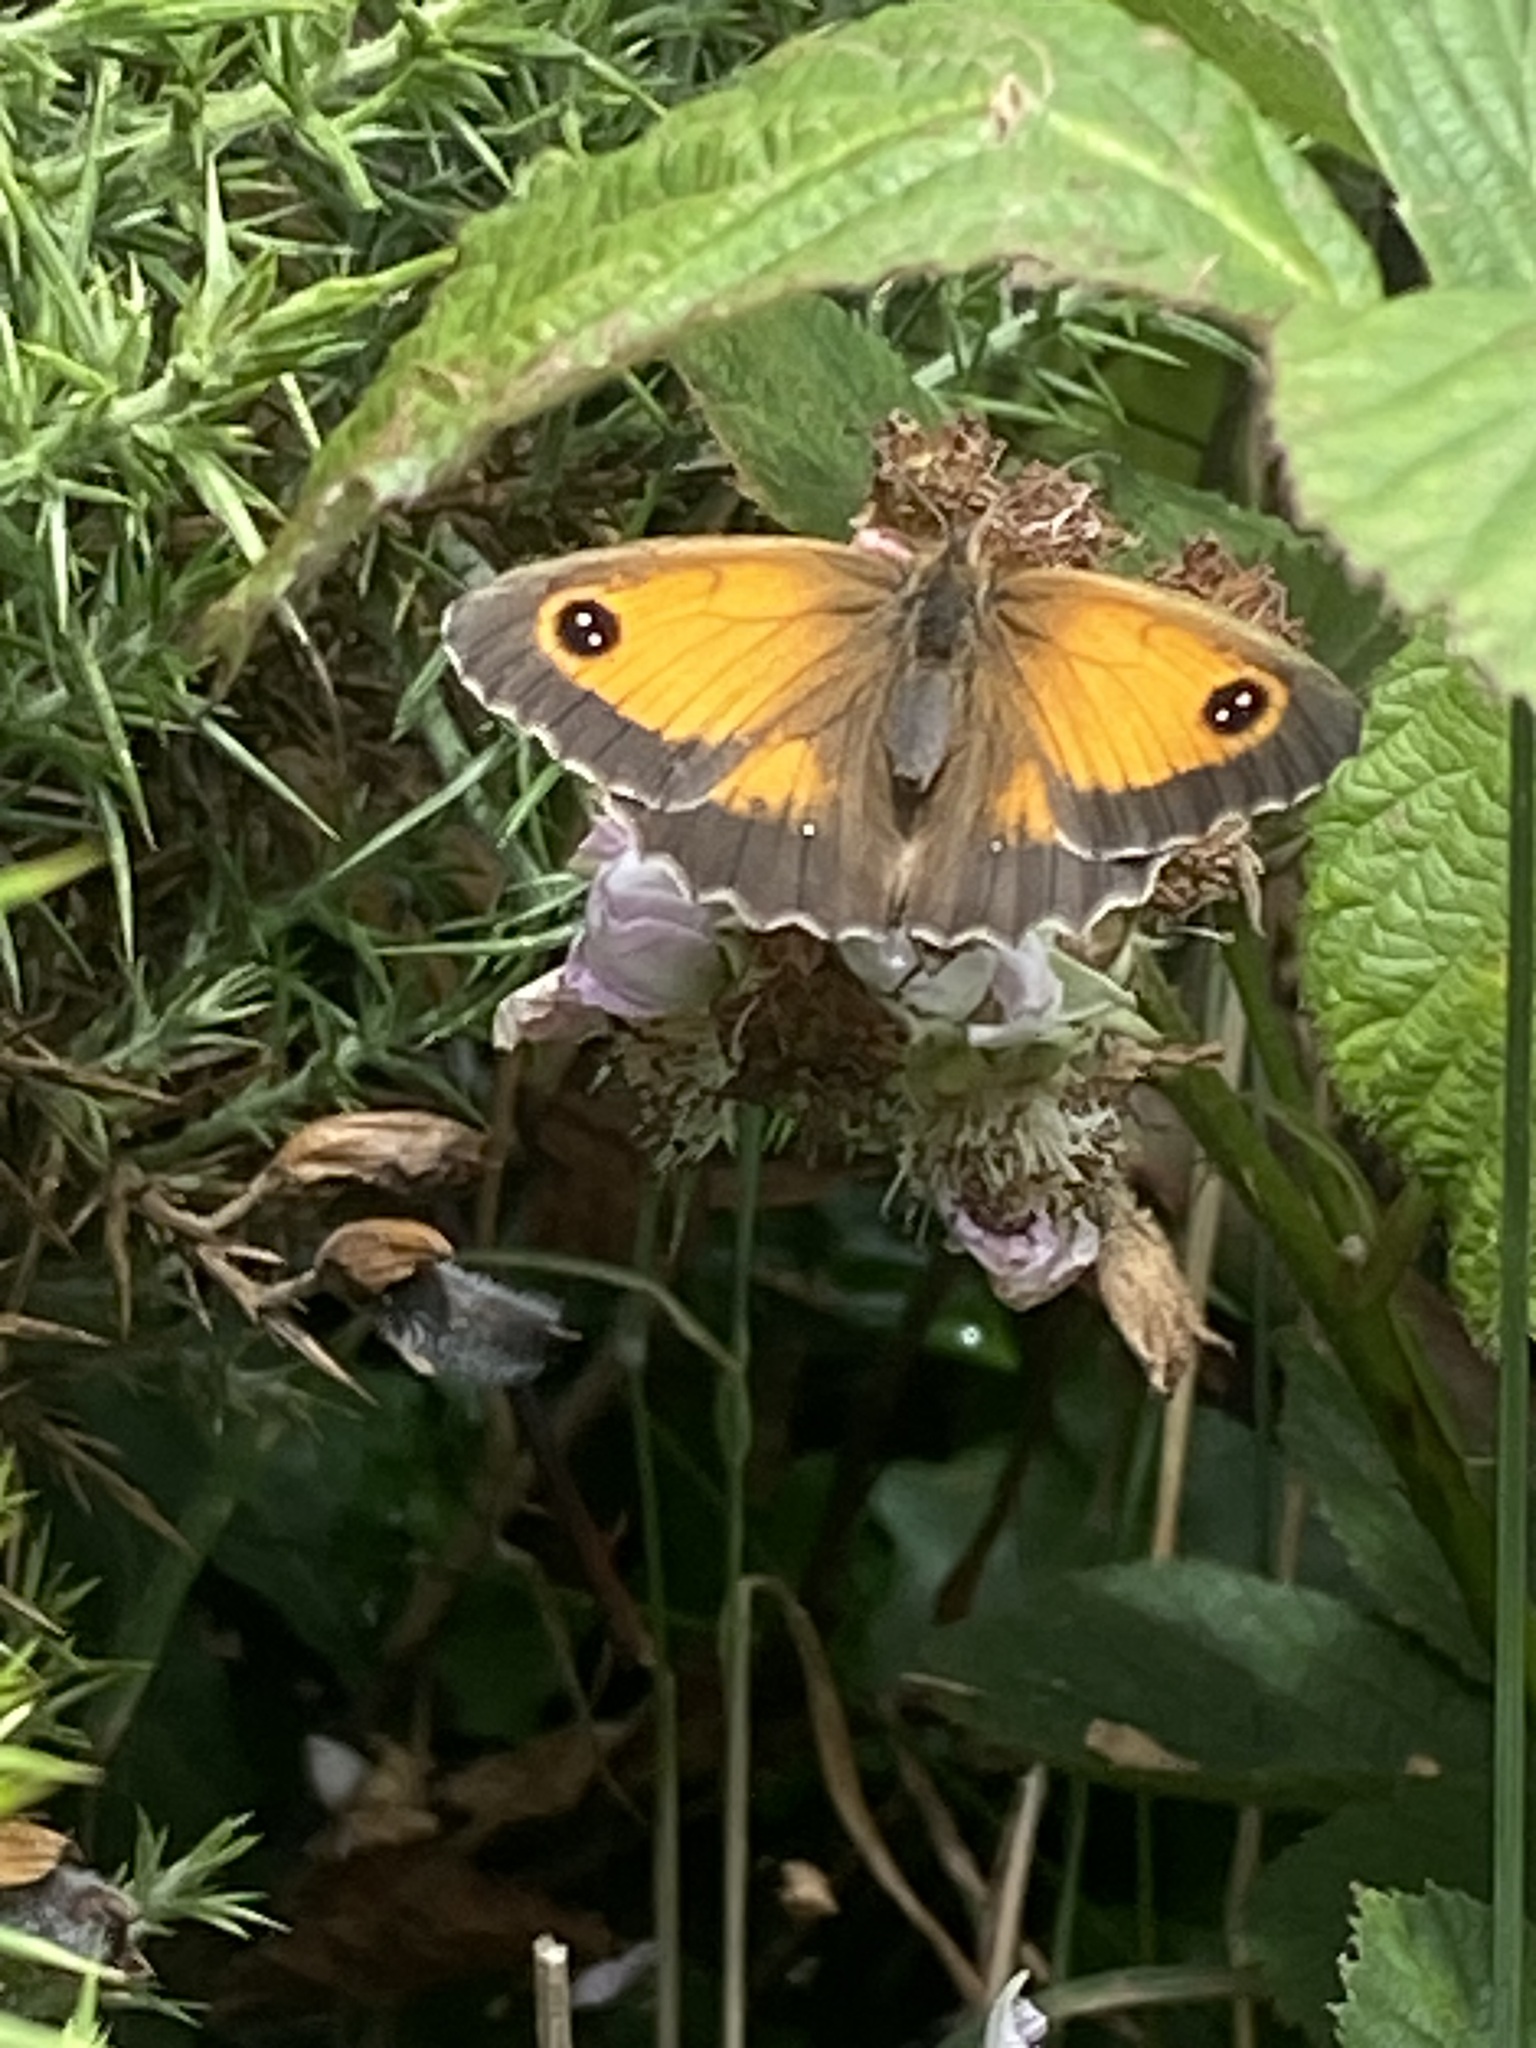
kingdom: Animalia
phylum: Arthropoda
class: Insecta
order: Lepidoptera
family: Nymphalidae
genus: Pyronia
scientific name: Pyronia tithonus
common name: Gatekeeper
